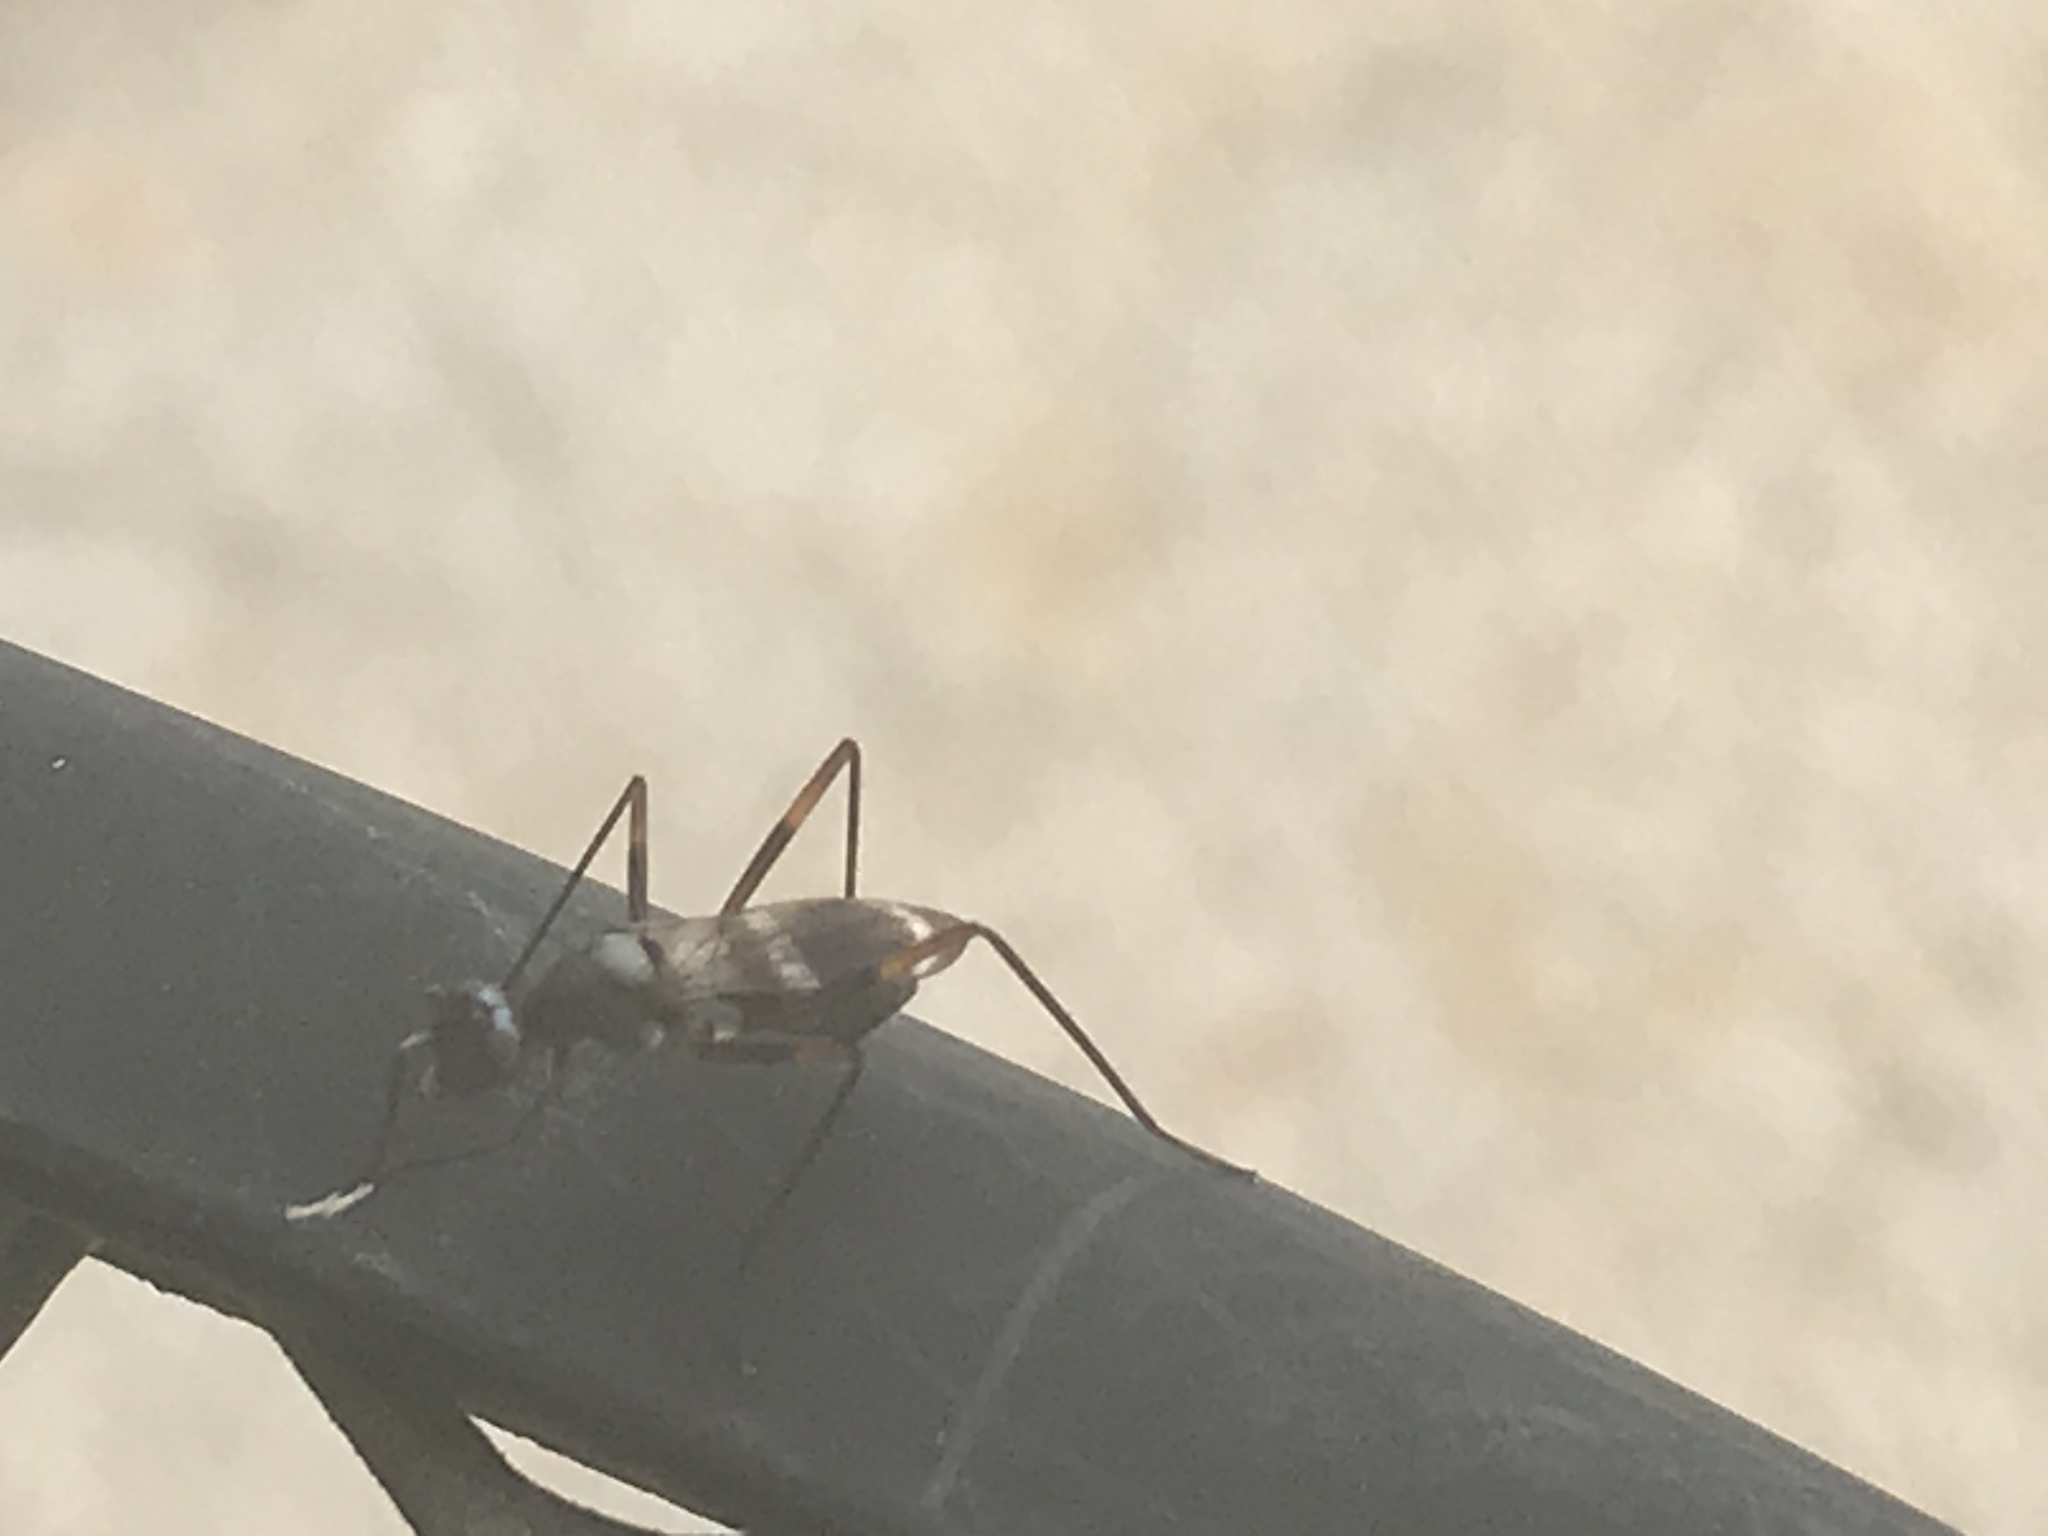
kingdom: Animalia
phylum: Arthropoda
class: Insecta
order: Diptera
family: Micropezidae
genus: Taeniaptera
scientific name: Taeniaptera trivittata
